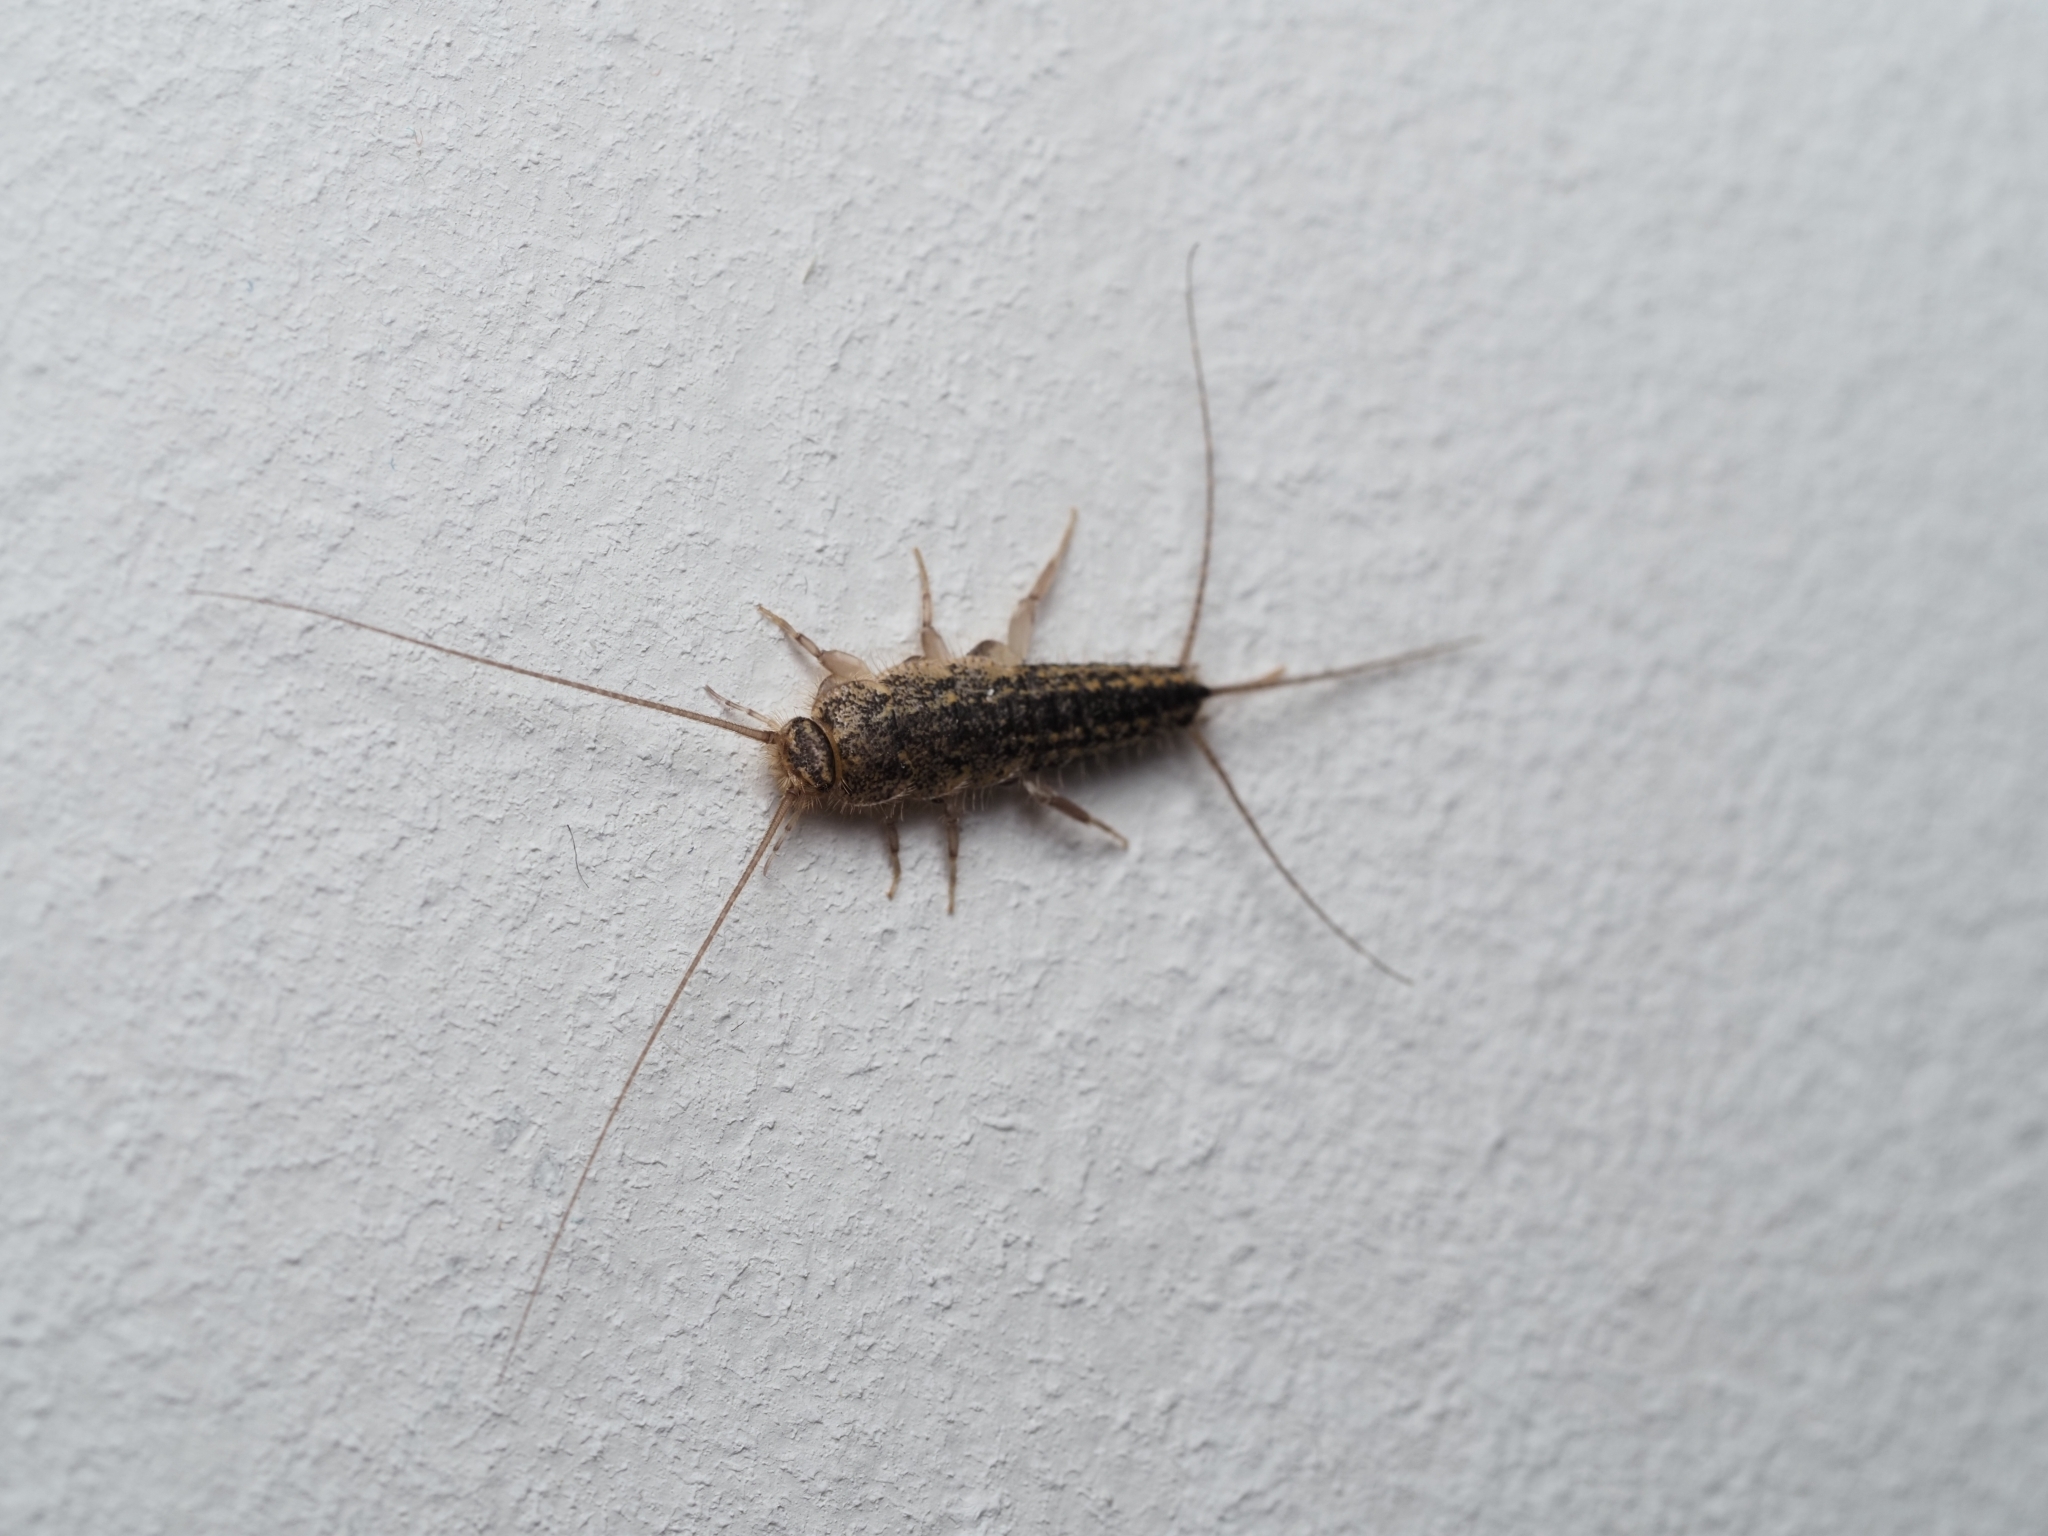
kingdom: Animalia
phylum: Arthropoda
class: Insecta
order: Zygentoma
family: Lepismatidae
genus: Ctenolepisma
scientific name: Ctenolepisma lineata
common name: Four-lined silverfish
